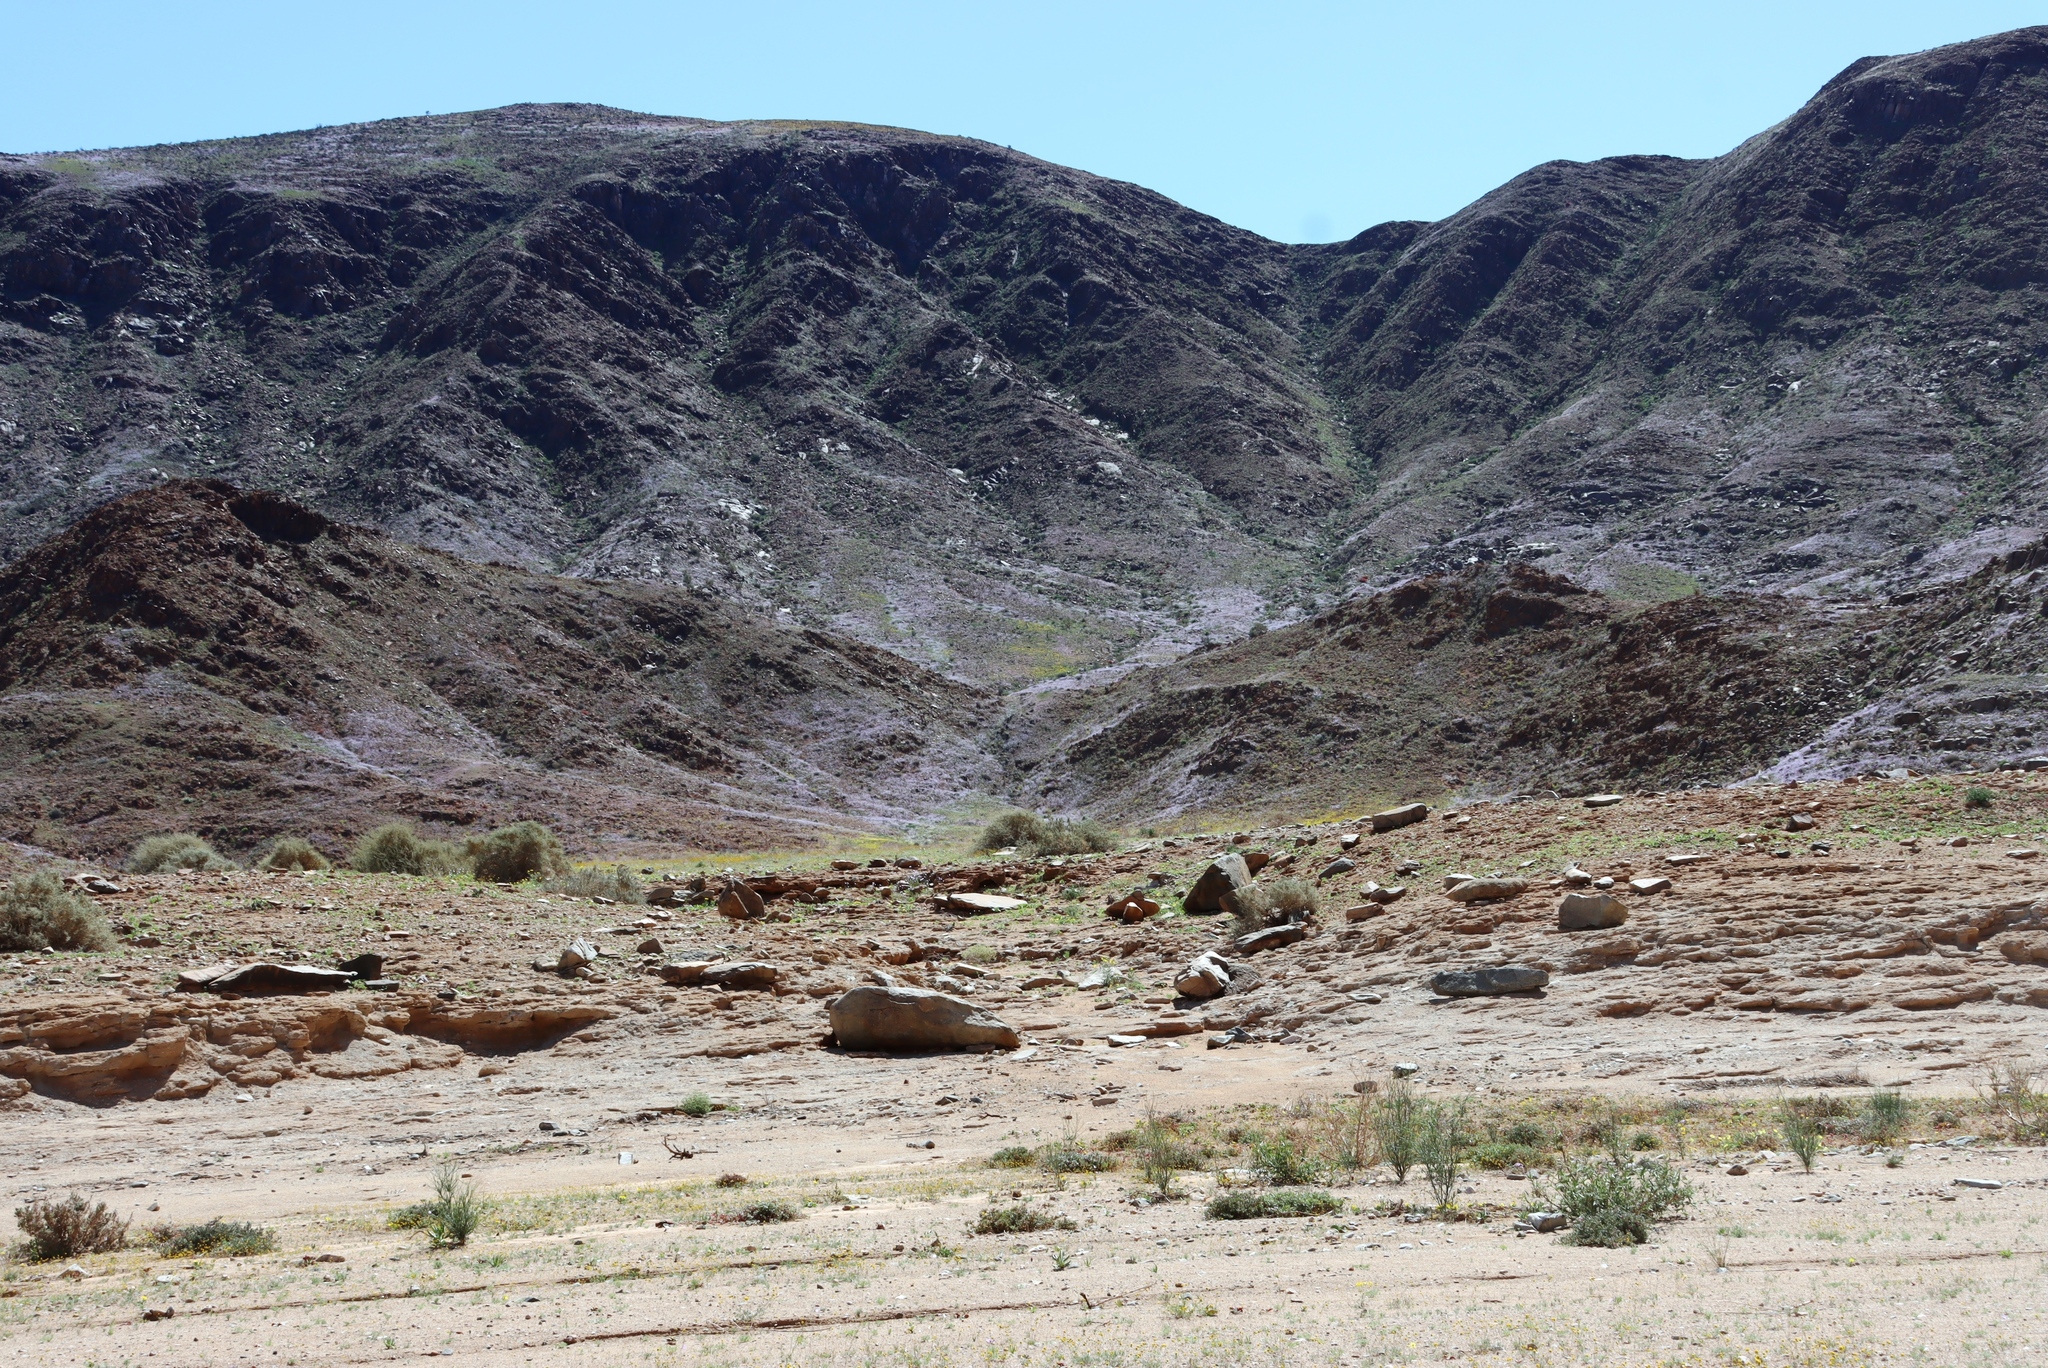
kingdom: Plantae
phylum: Tracheophyta
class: Magnoliopsida
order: Brassicales
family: Brassicaceae
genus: Heliophila
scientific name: Heliophila trifurca
